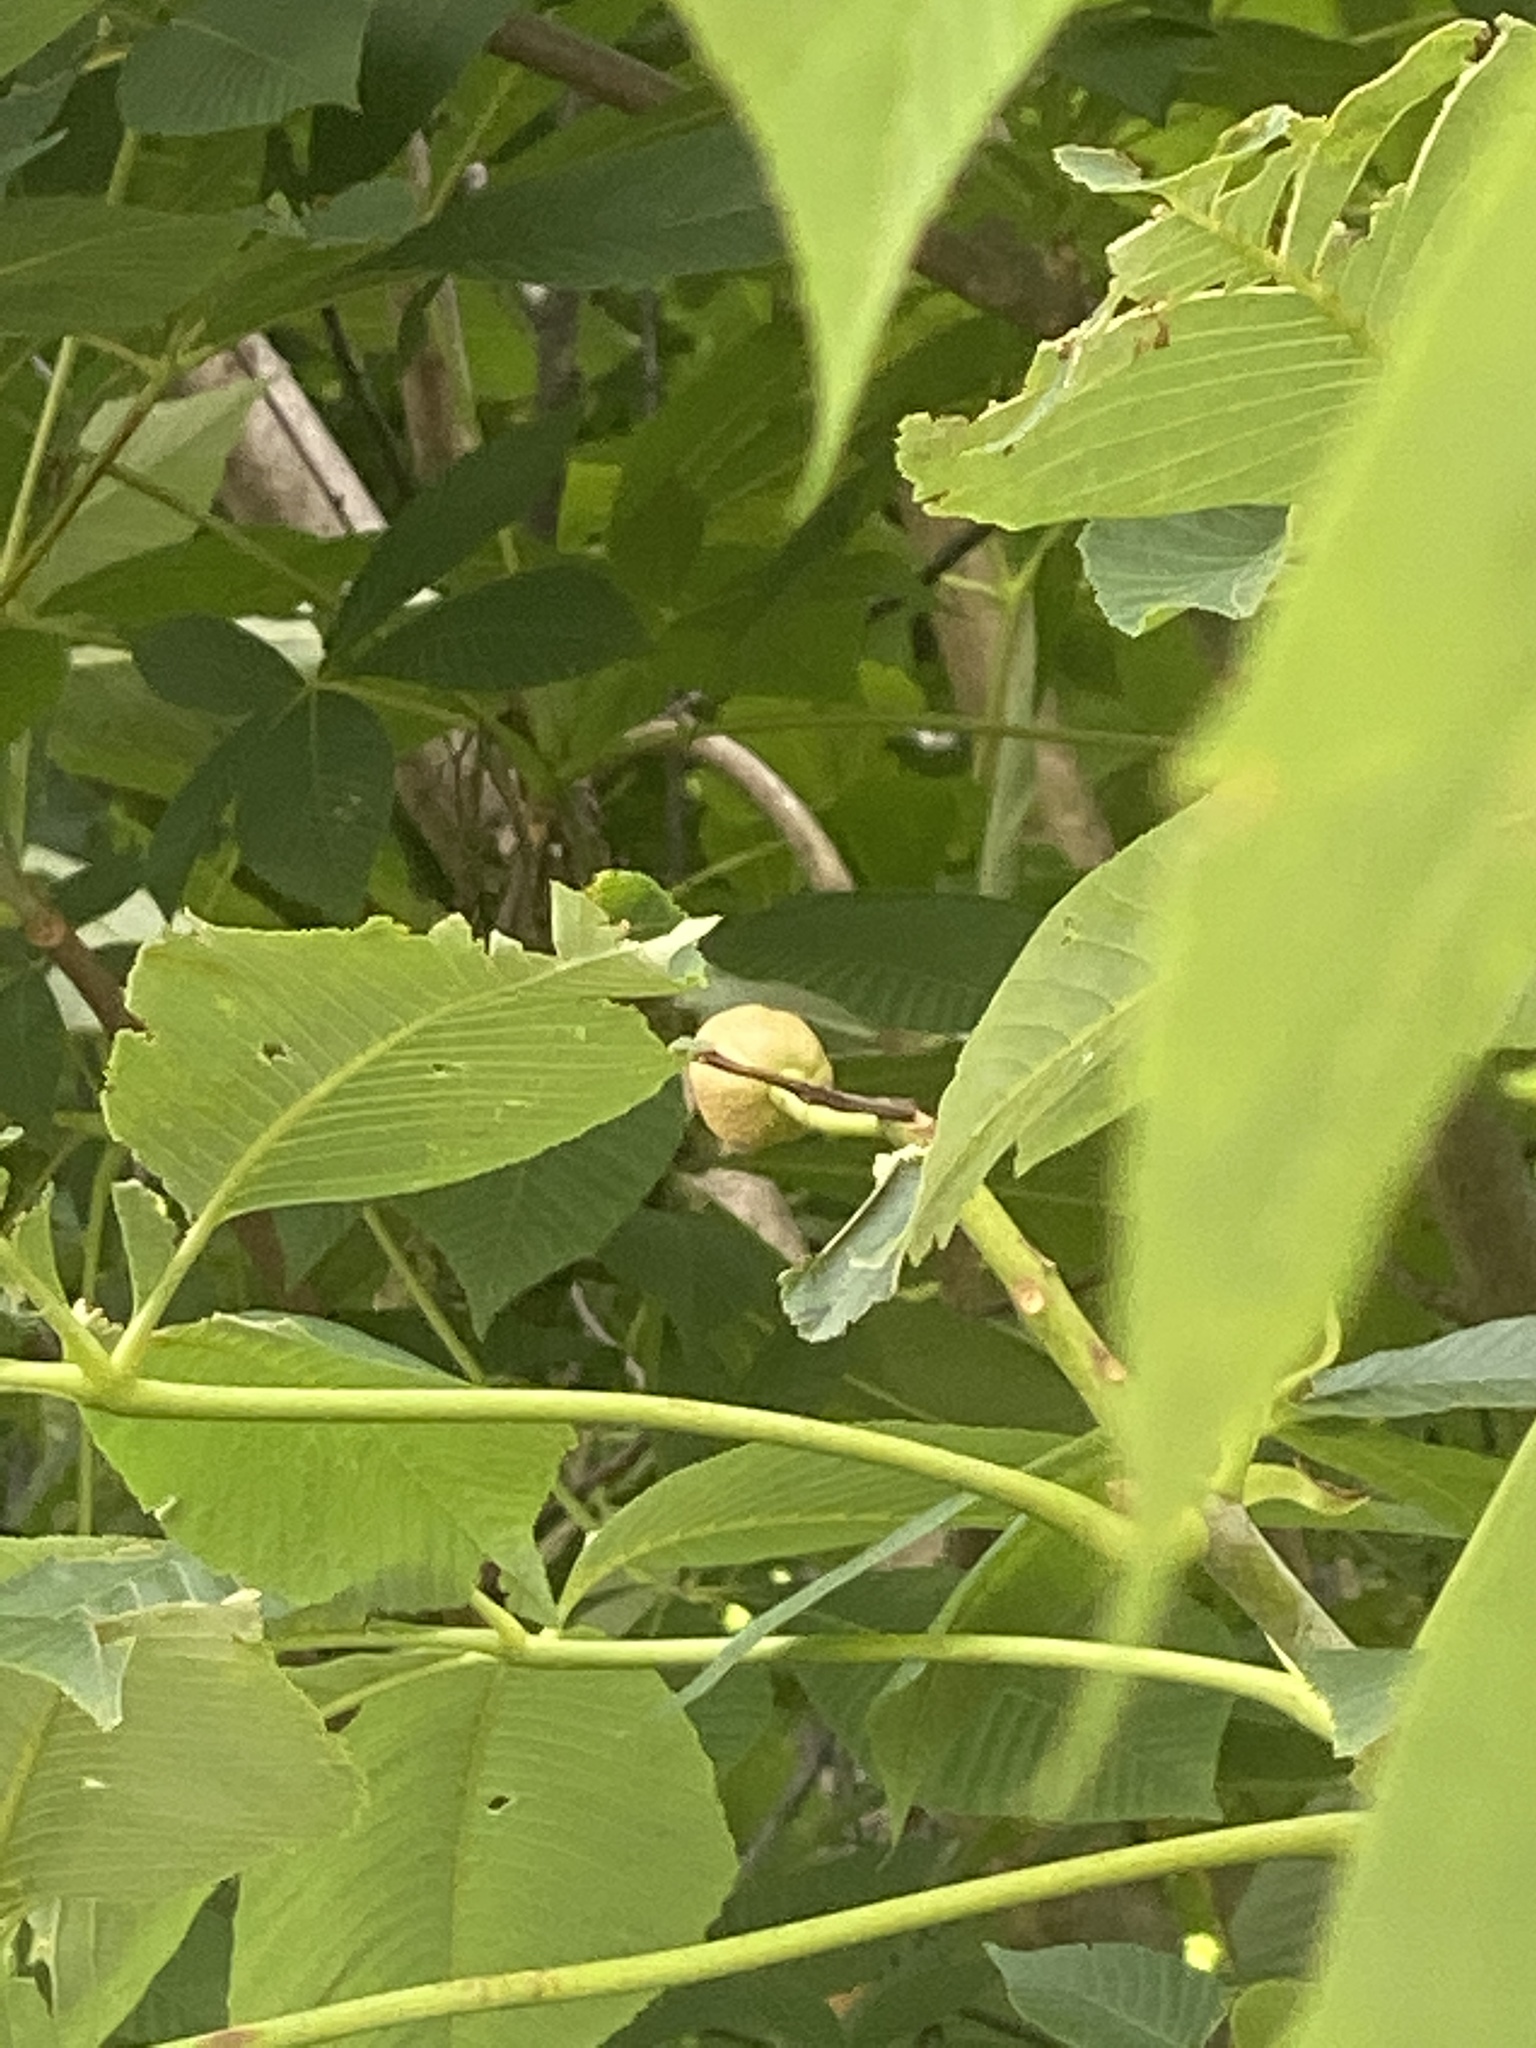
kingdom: Plantae
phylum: Tracheophyta
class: Magnoliopsida
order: Sapindales
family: Sapindaceae
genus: Aesculus
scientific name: Aesculus flava
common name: Yellow buckeye
